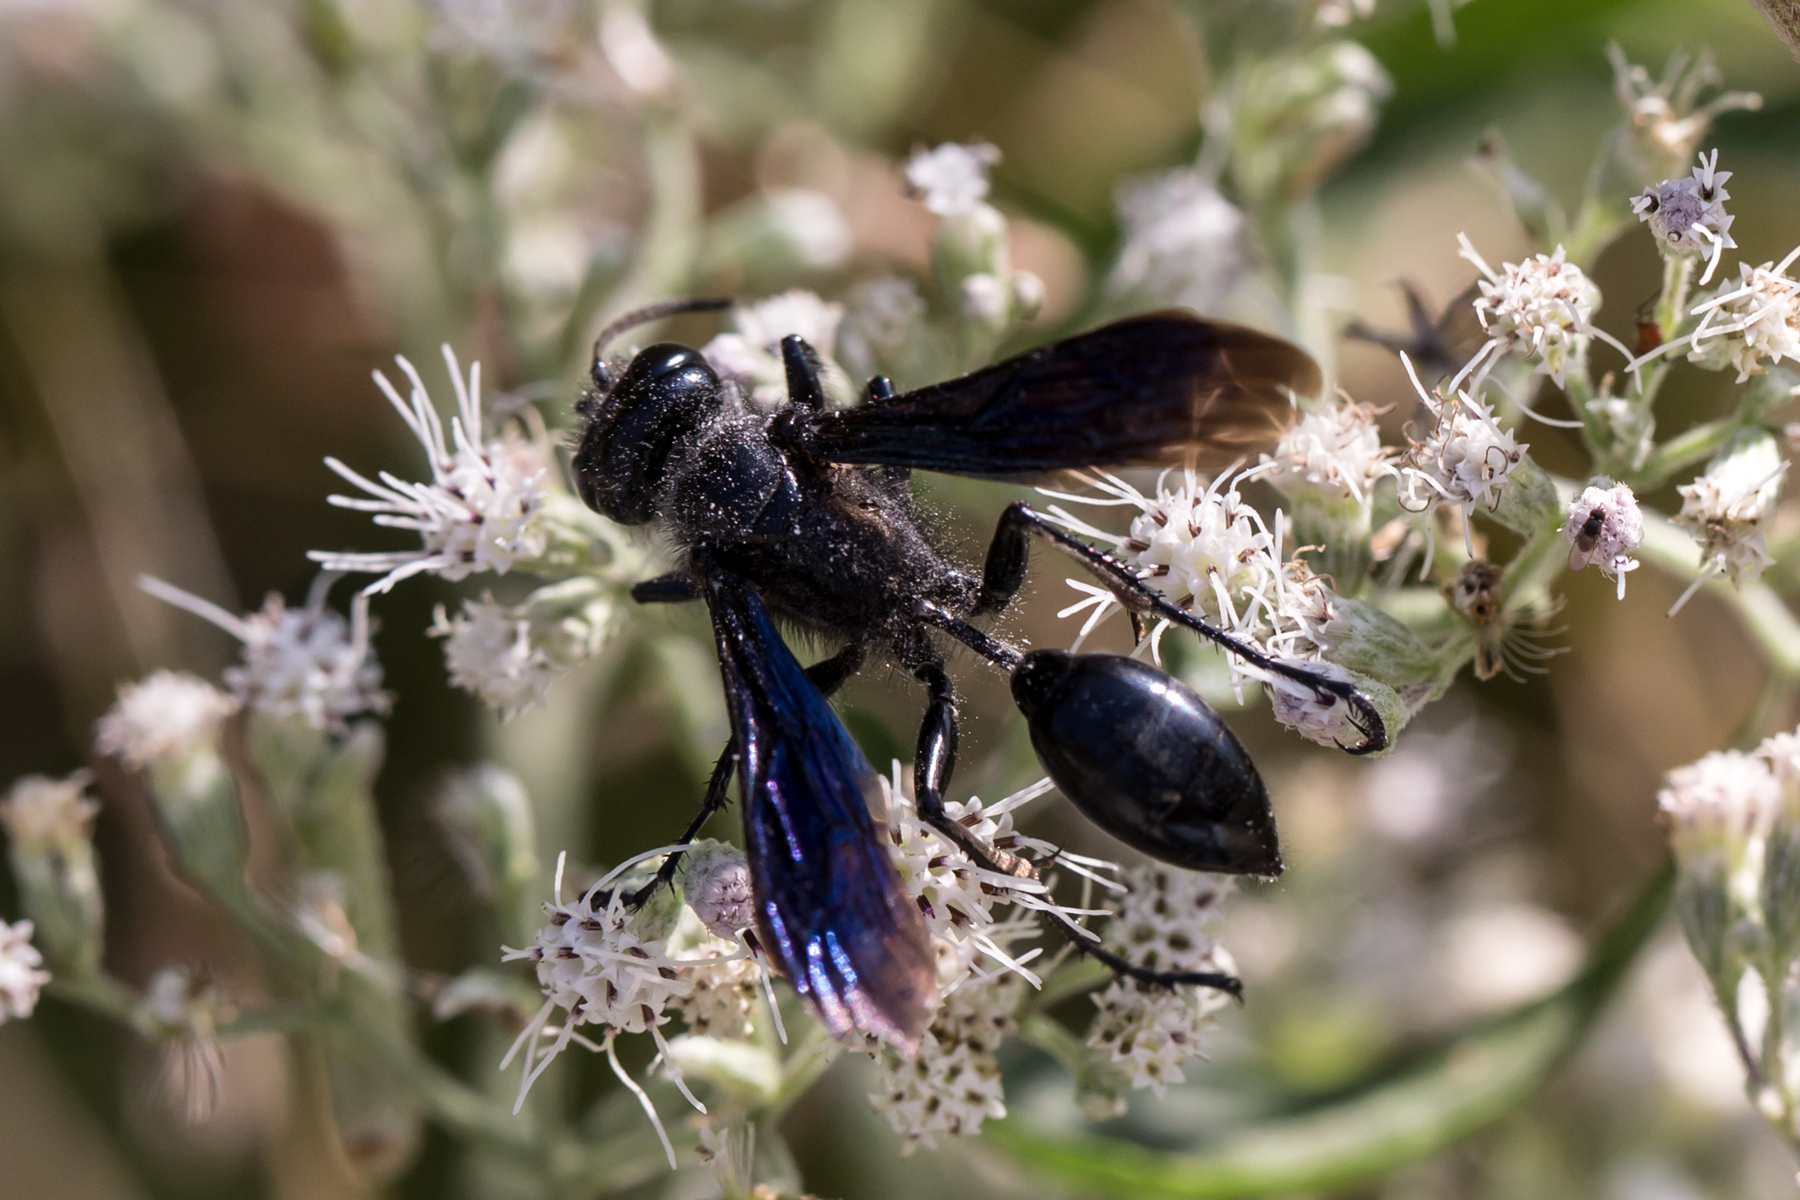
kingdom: Animalia
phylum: Arthropoda
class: Insecta
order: Hymenoptera
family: Sphecidae
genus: Isodontia
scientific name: Isodontia philadelphica
